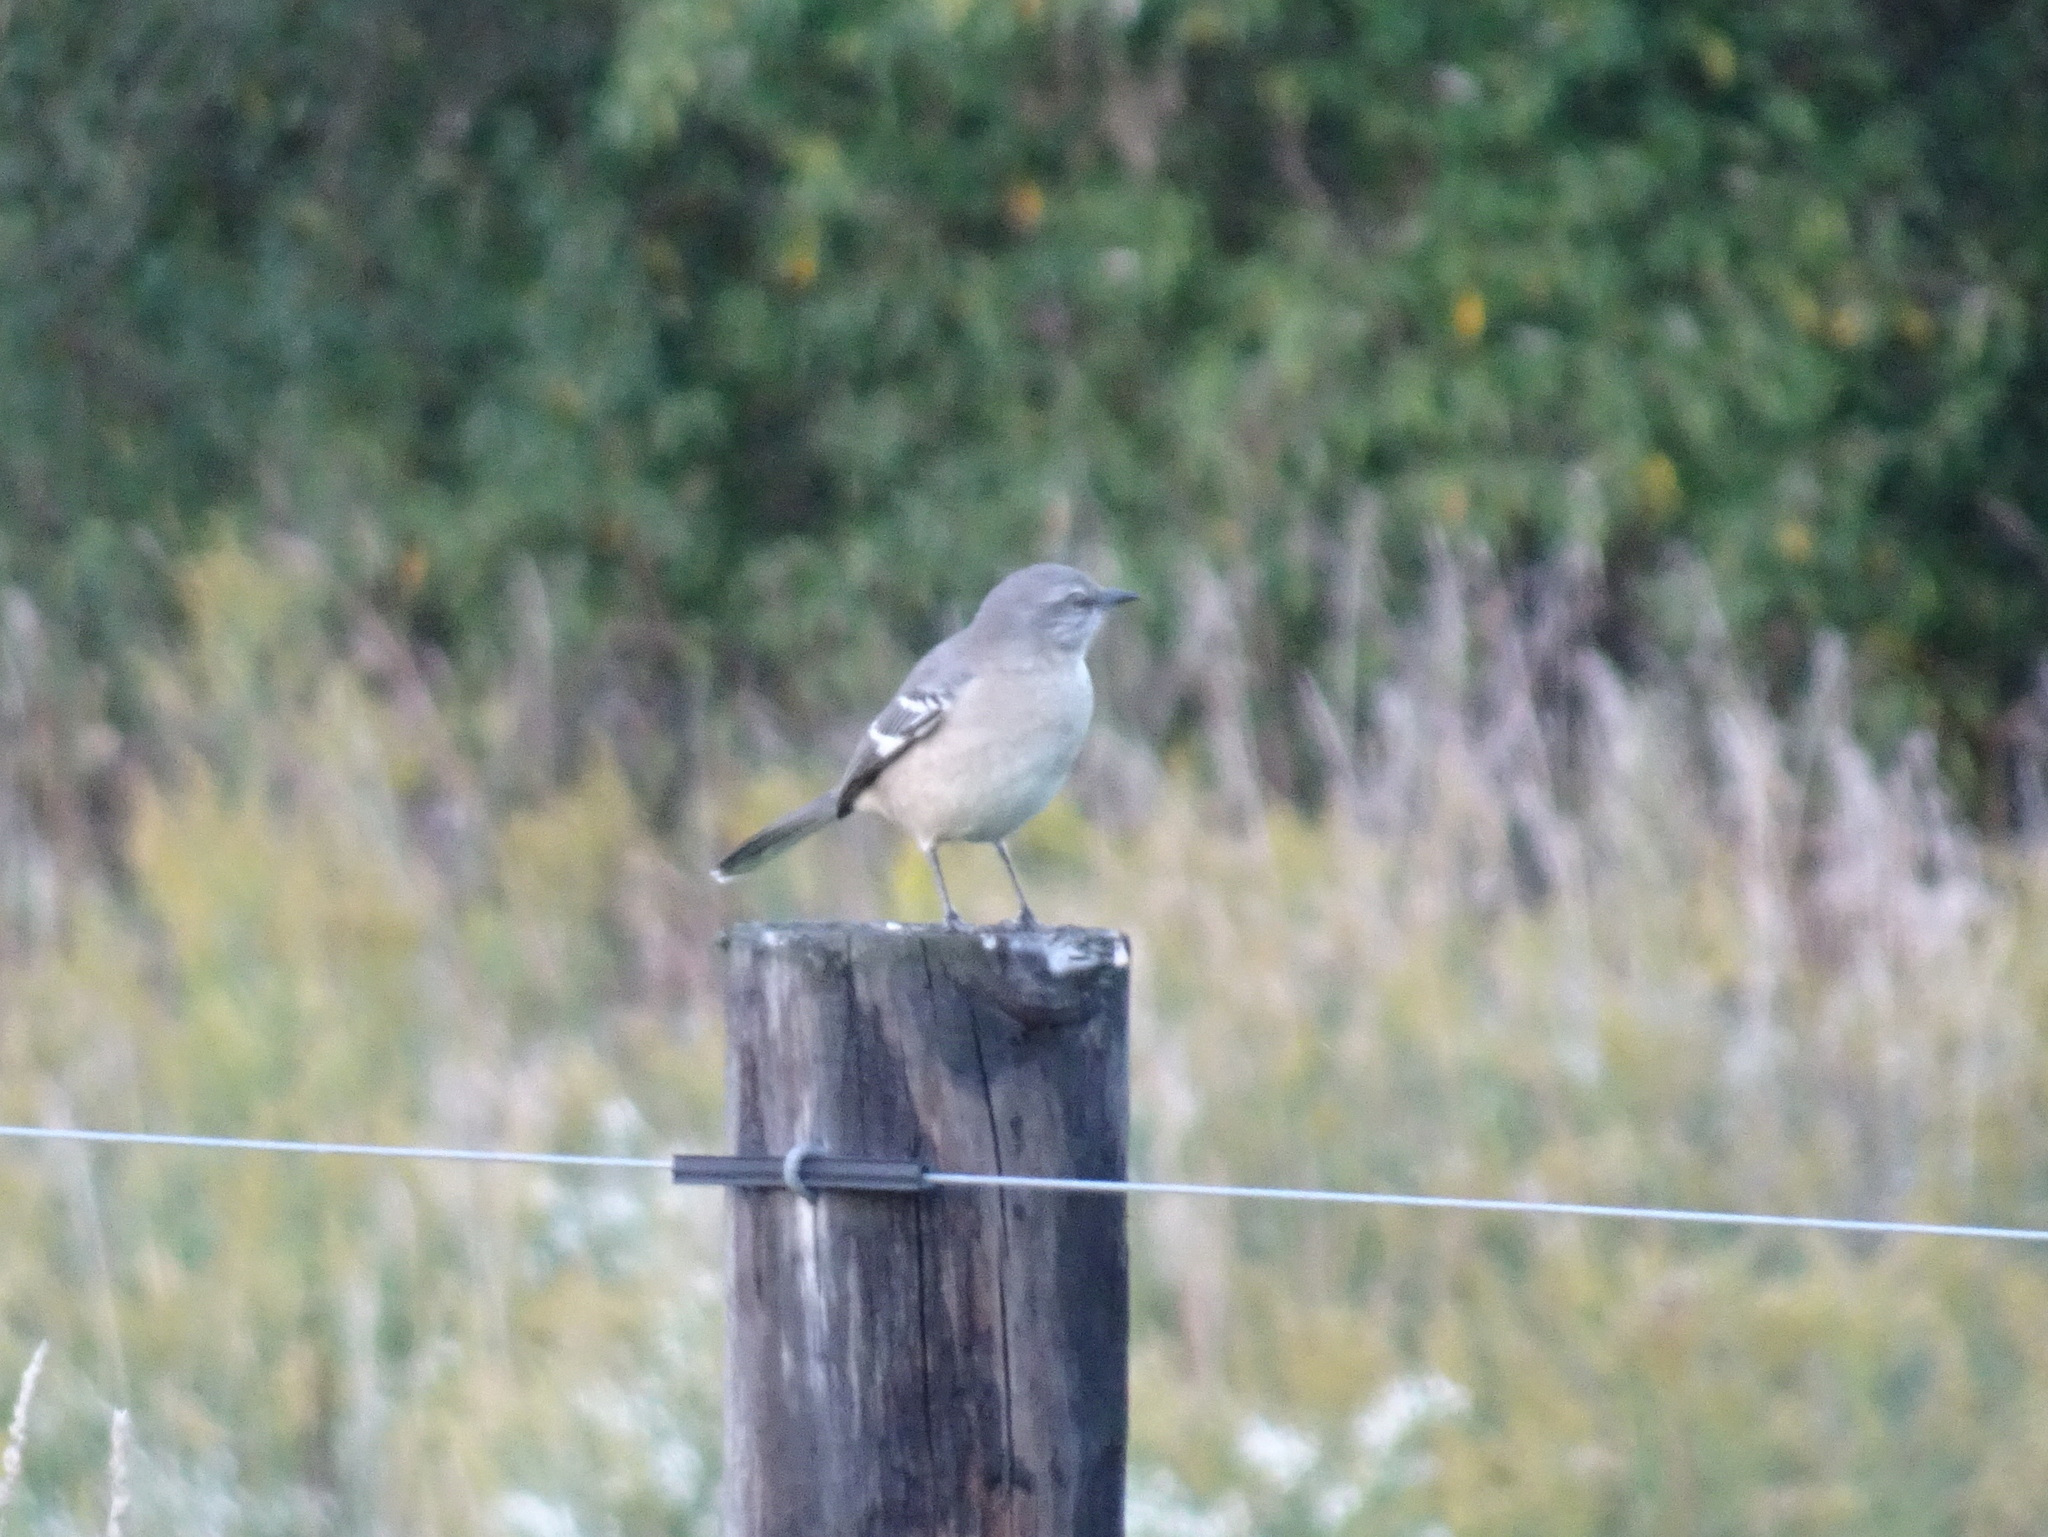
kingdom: Animalia
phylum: Chordata
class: Aves
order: Passeriformes
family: Mimidae
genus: Mimus
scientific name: Mimus polyglottos
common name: Northern mockingbird
